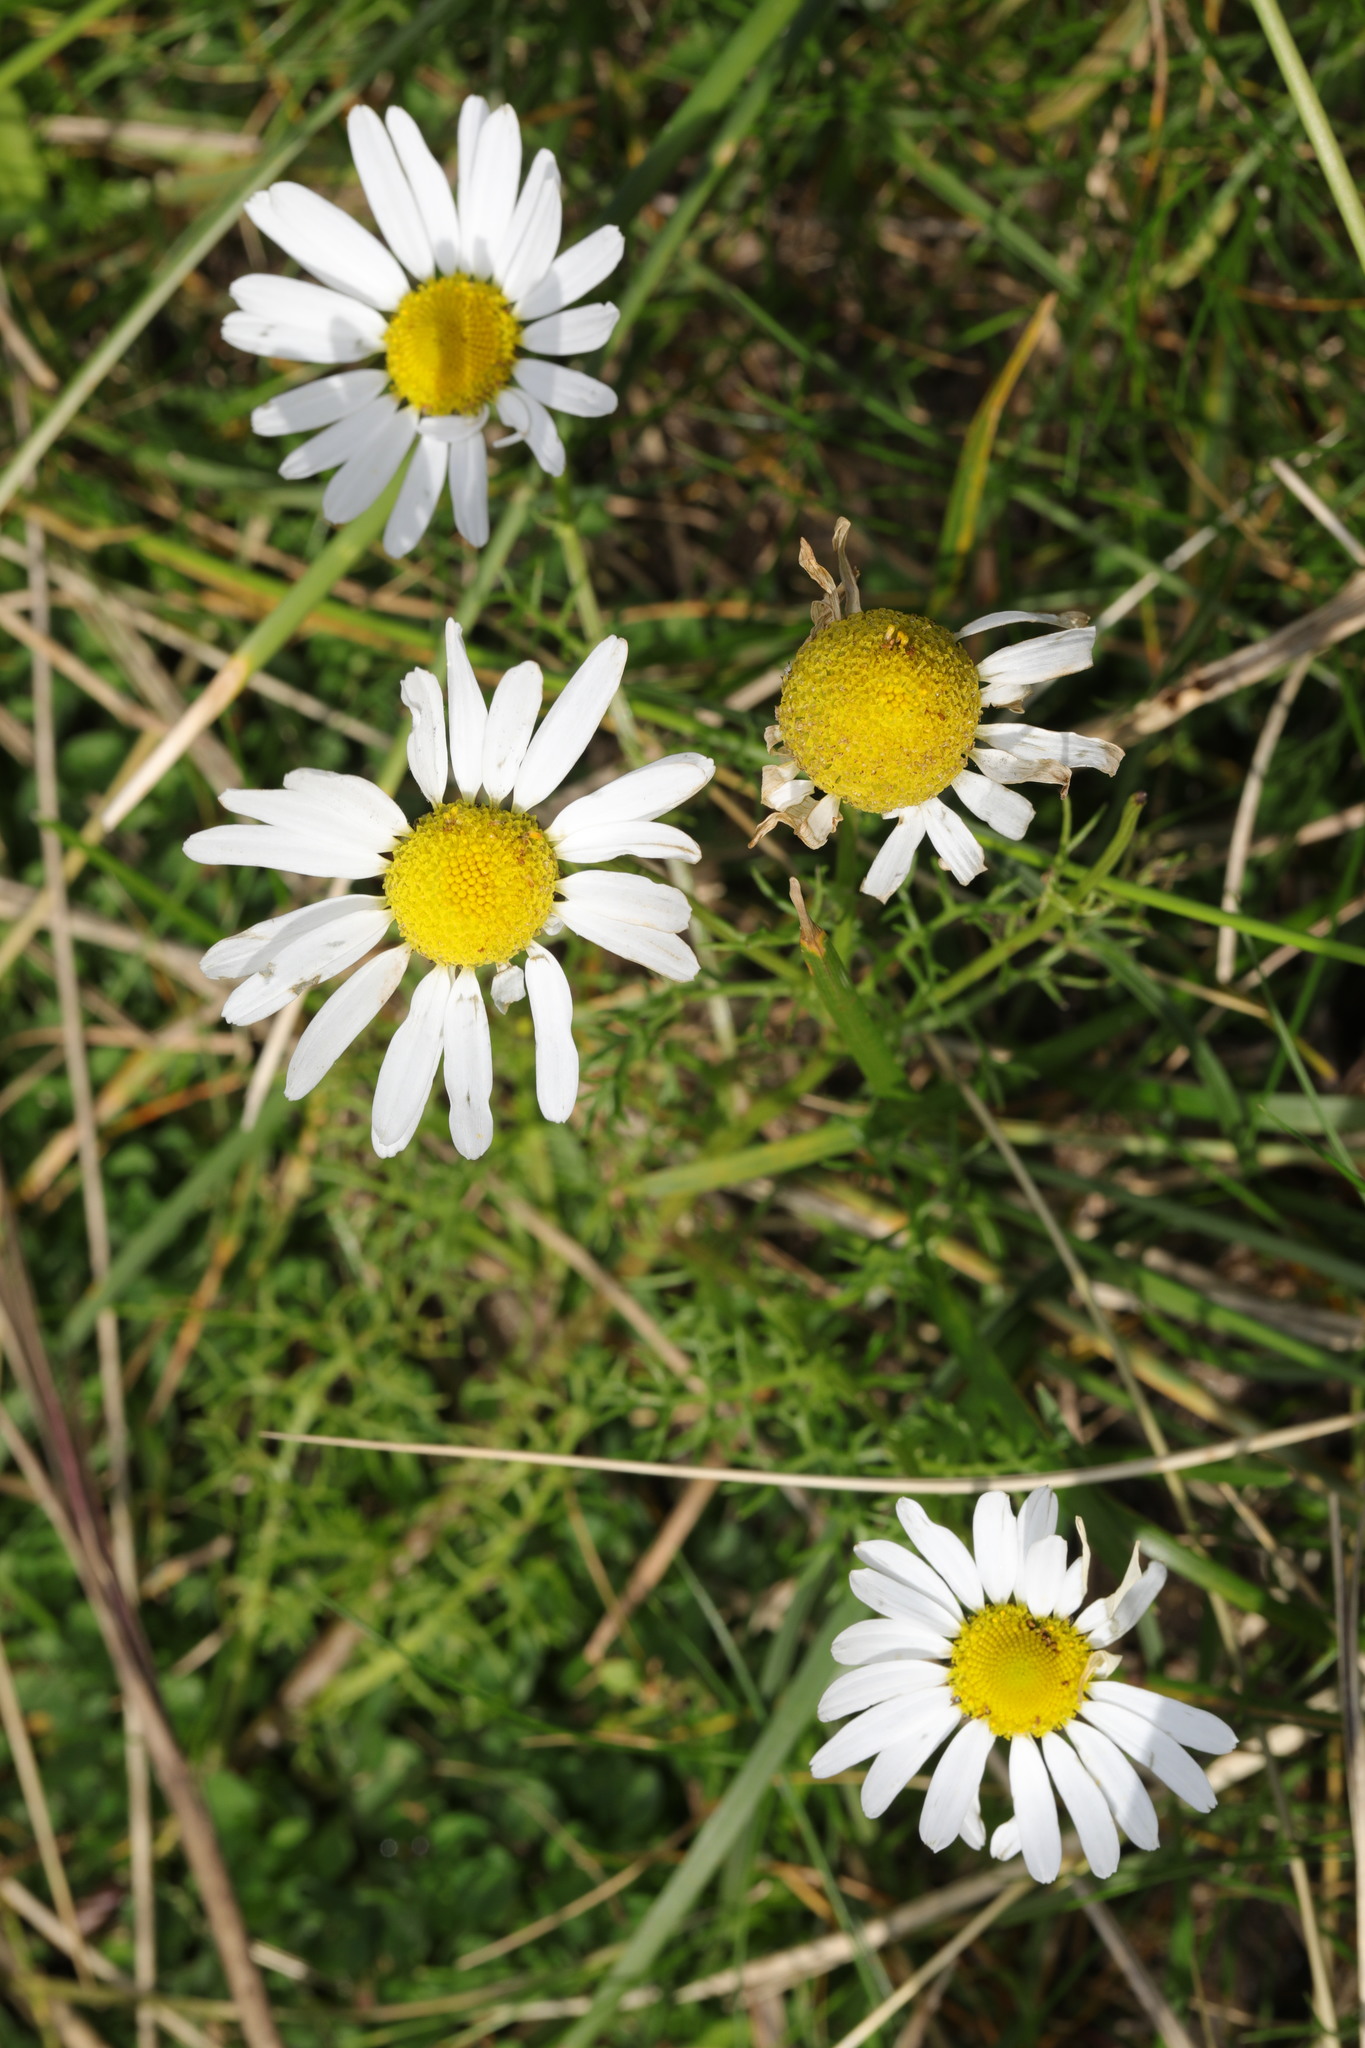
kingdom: Plantae
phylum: Tracheophyta
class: Magnoliopsida
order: Asterales
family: Asteraceae
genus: Tripleurospermum
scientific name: Tripleurospermum inodorum
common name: Scentless mayweed
